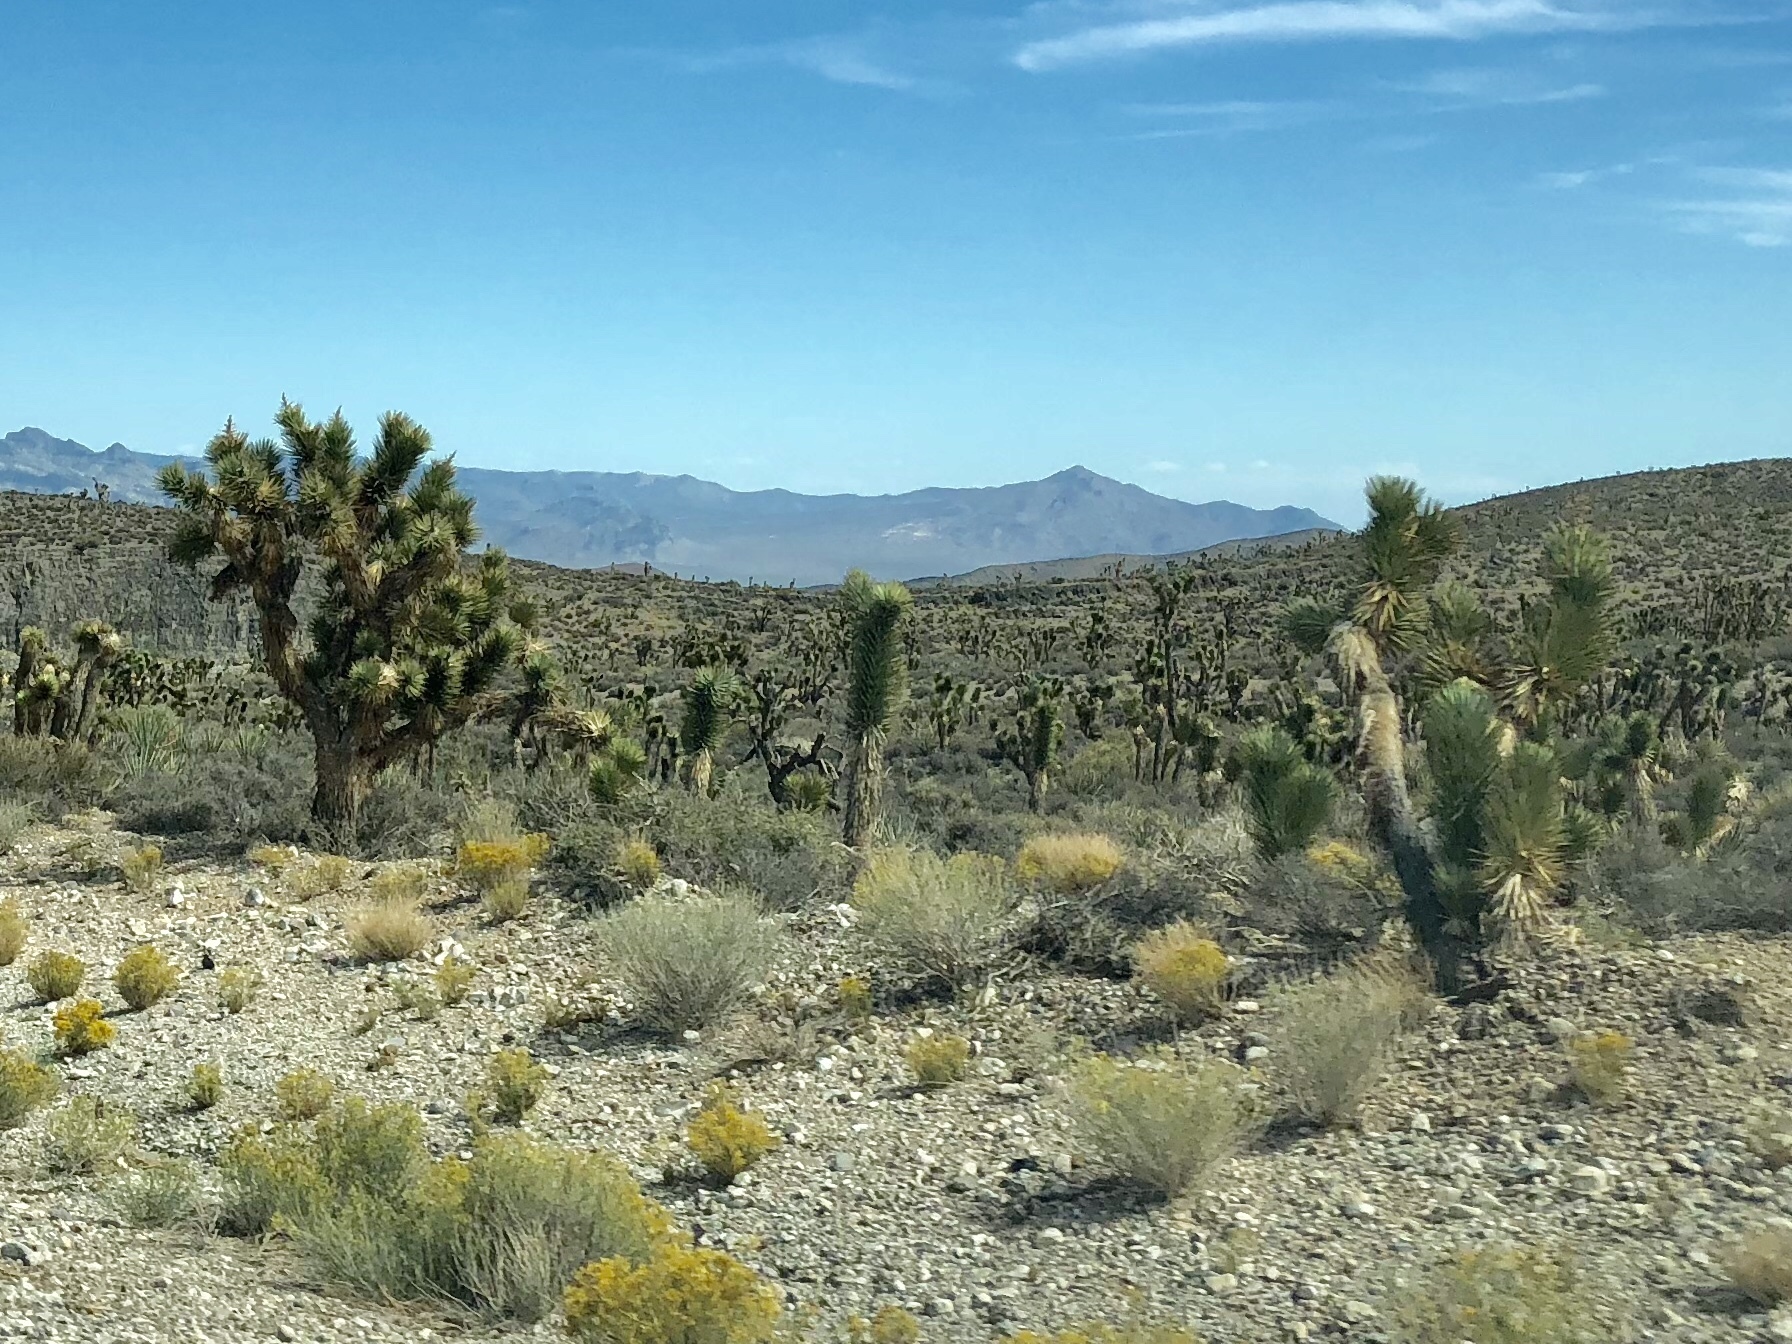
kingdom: Plantae
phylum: Tracheophyta
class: Liliopsida
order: Asparagales
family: Asparagaceae
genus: Yucca
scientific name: Yucca brevifolia
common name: Joshua tree
